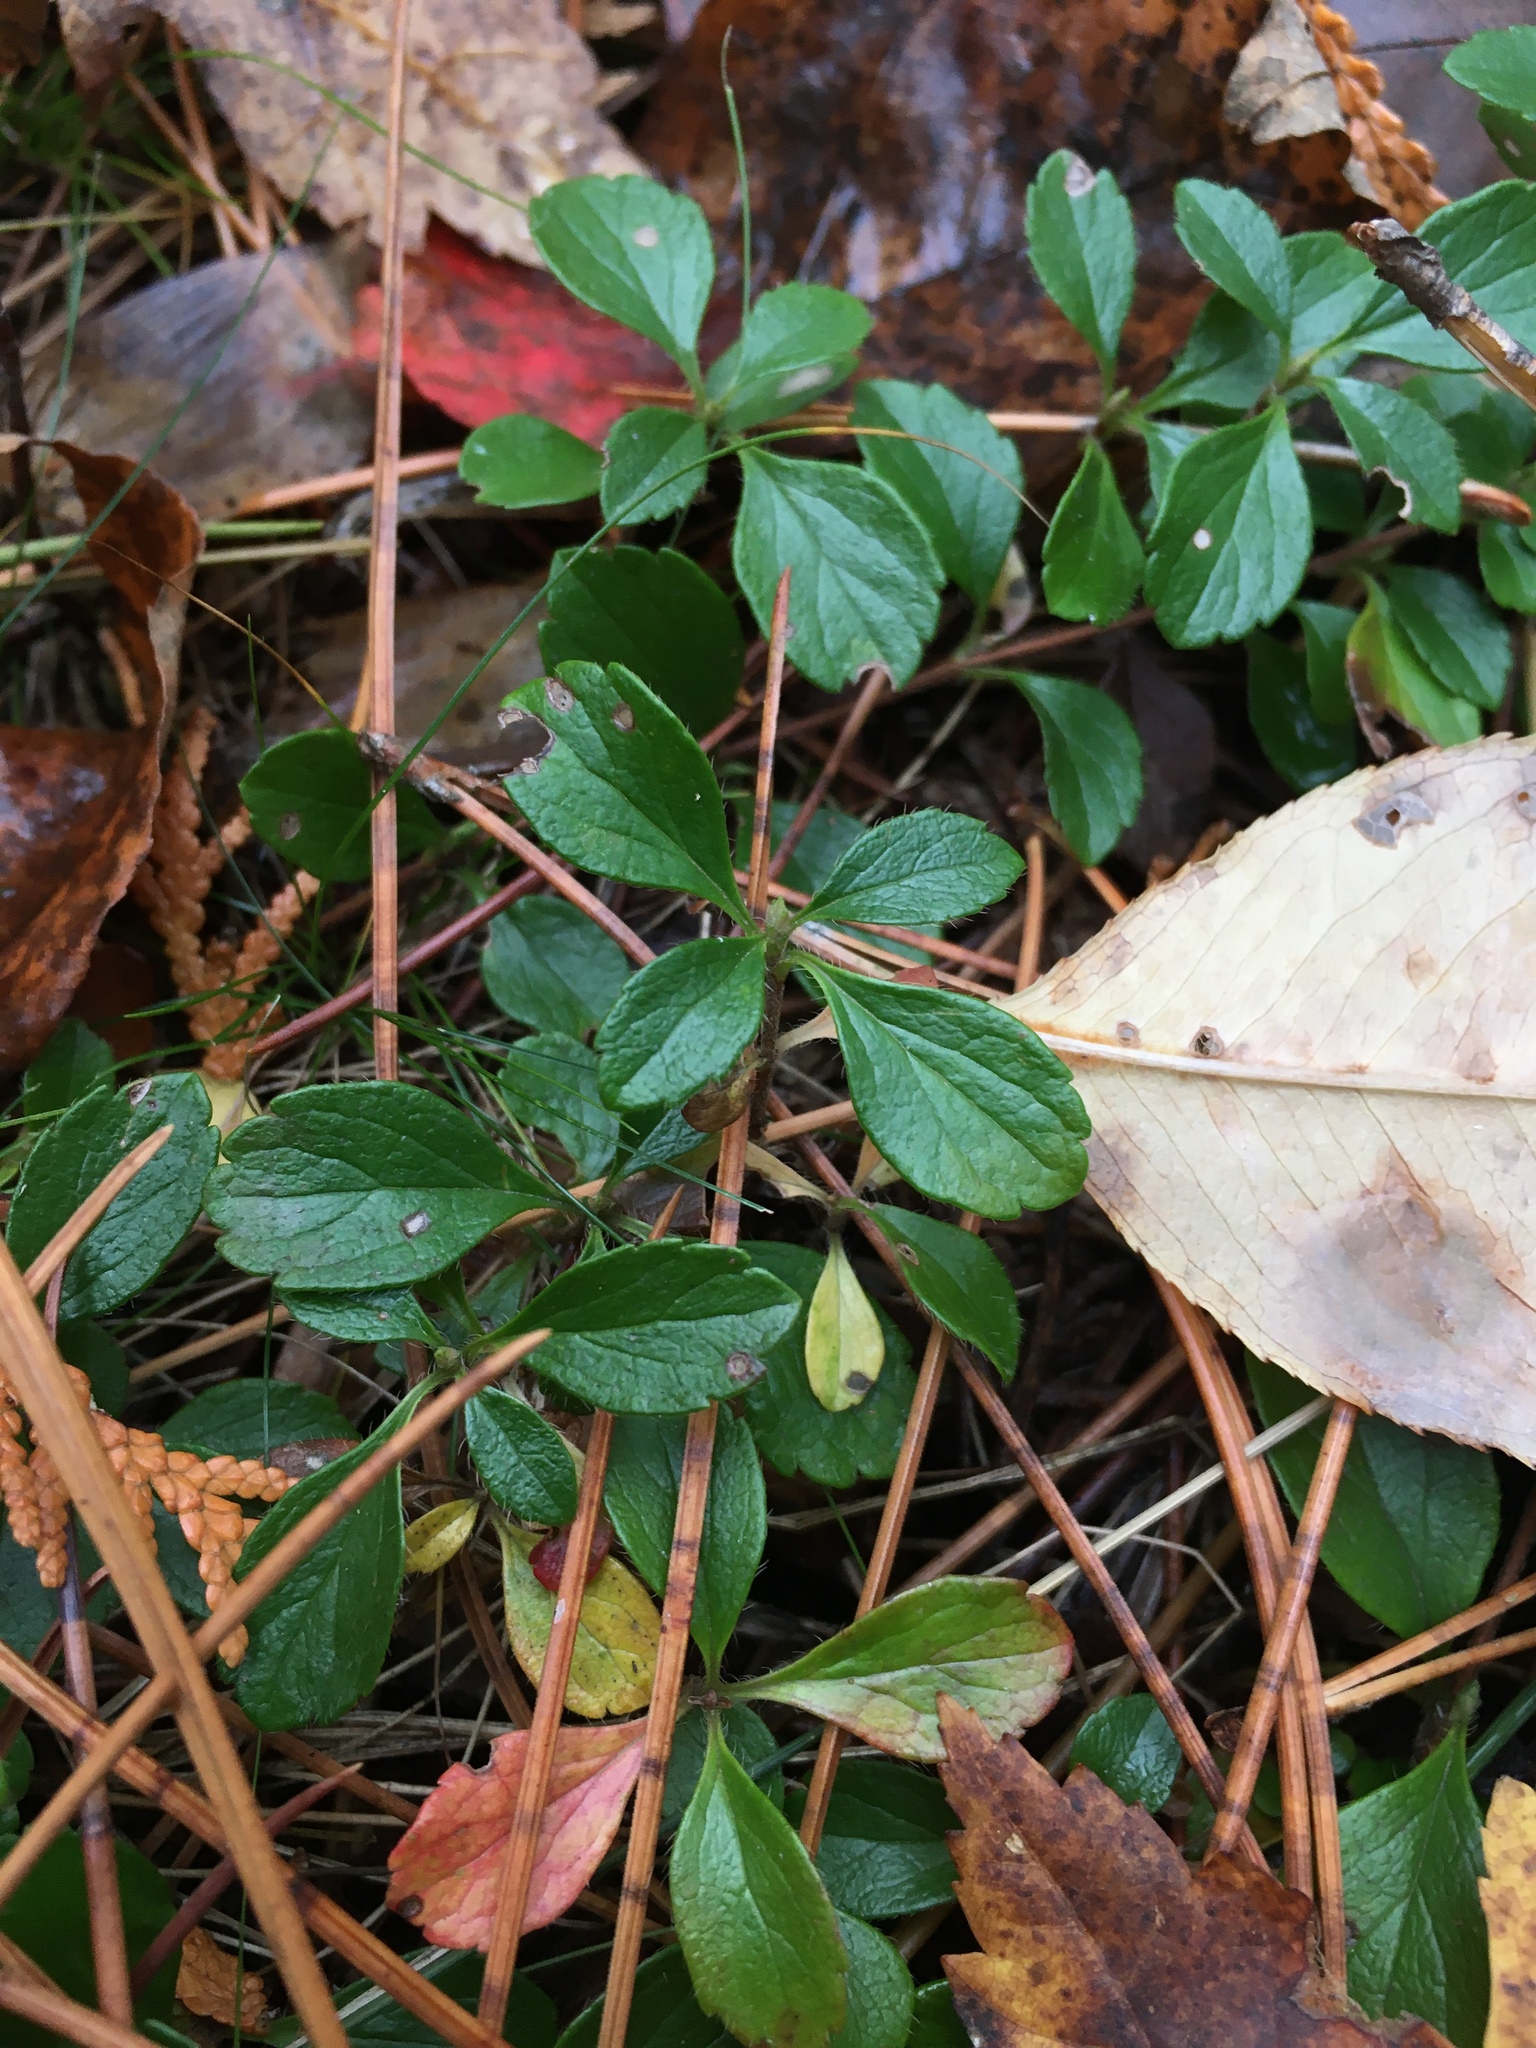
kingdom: Plantae
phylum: Tracheophyta
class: Magnoliopsida
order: Dipsacales
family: Caprifoliaceae
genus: Linnaea
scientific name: Linnaea borealis
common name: Twinflower
